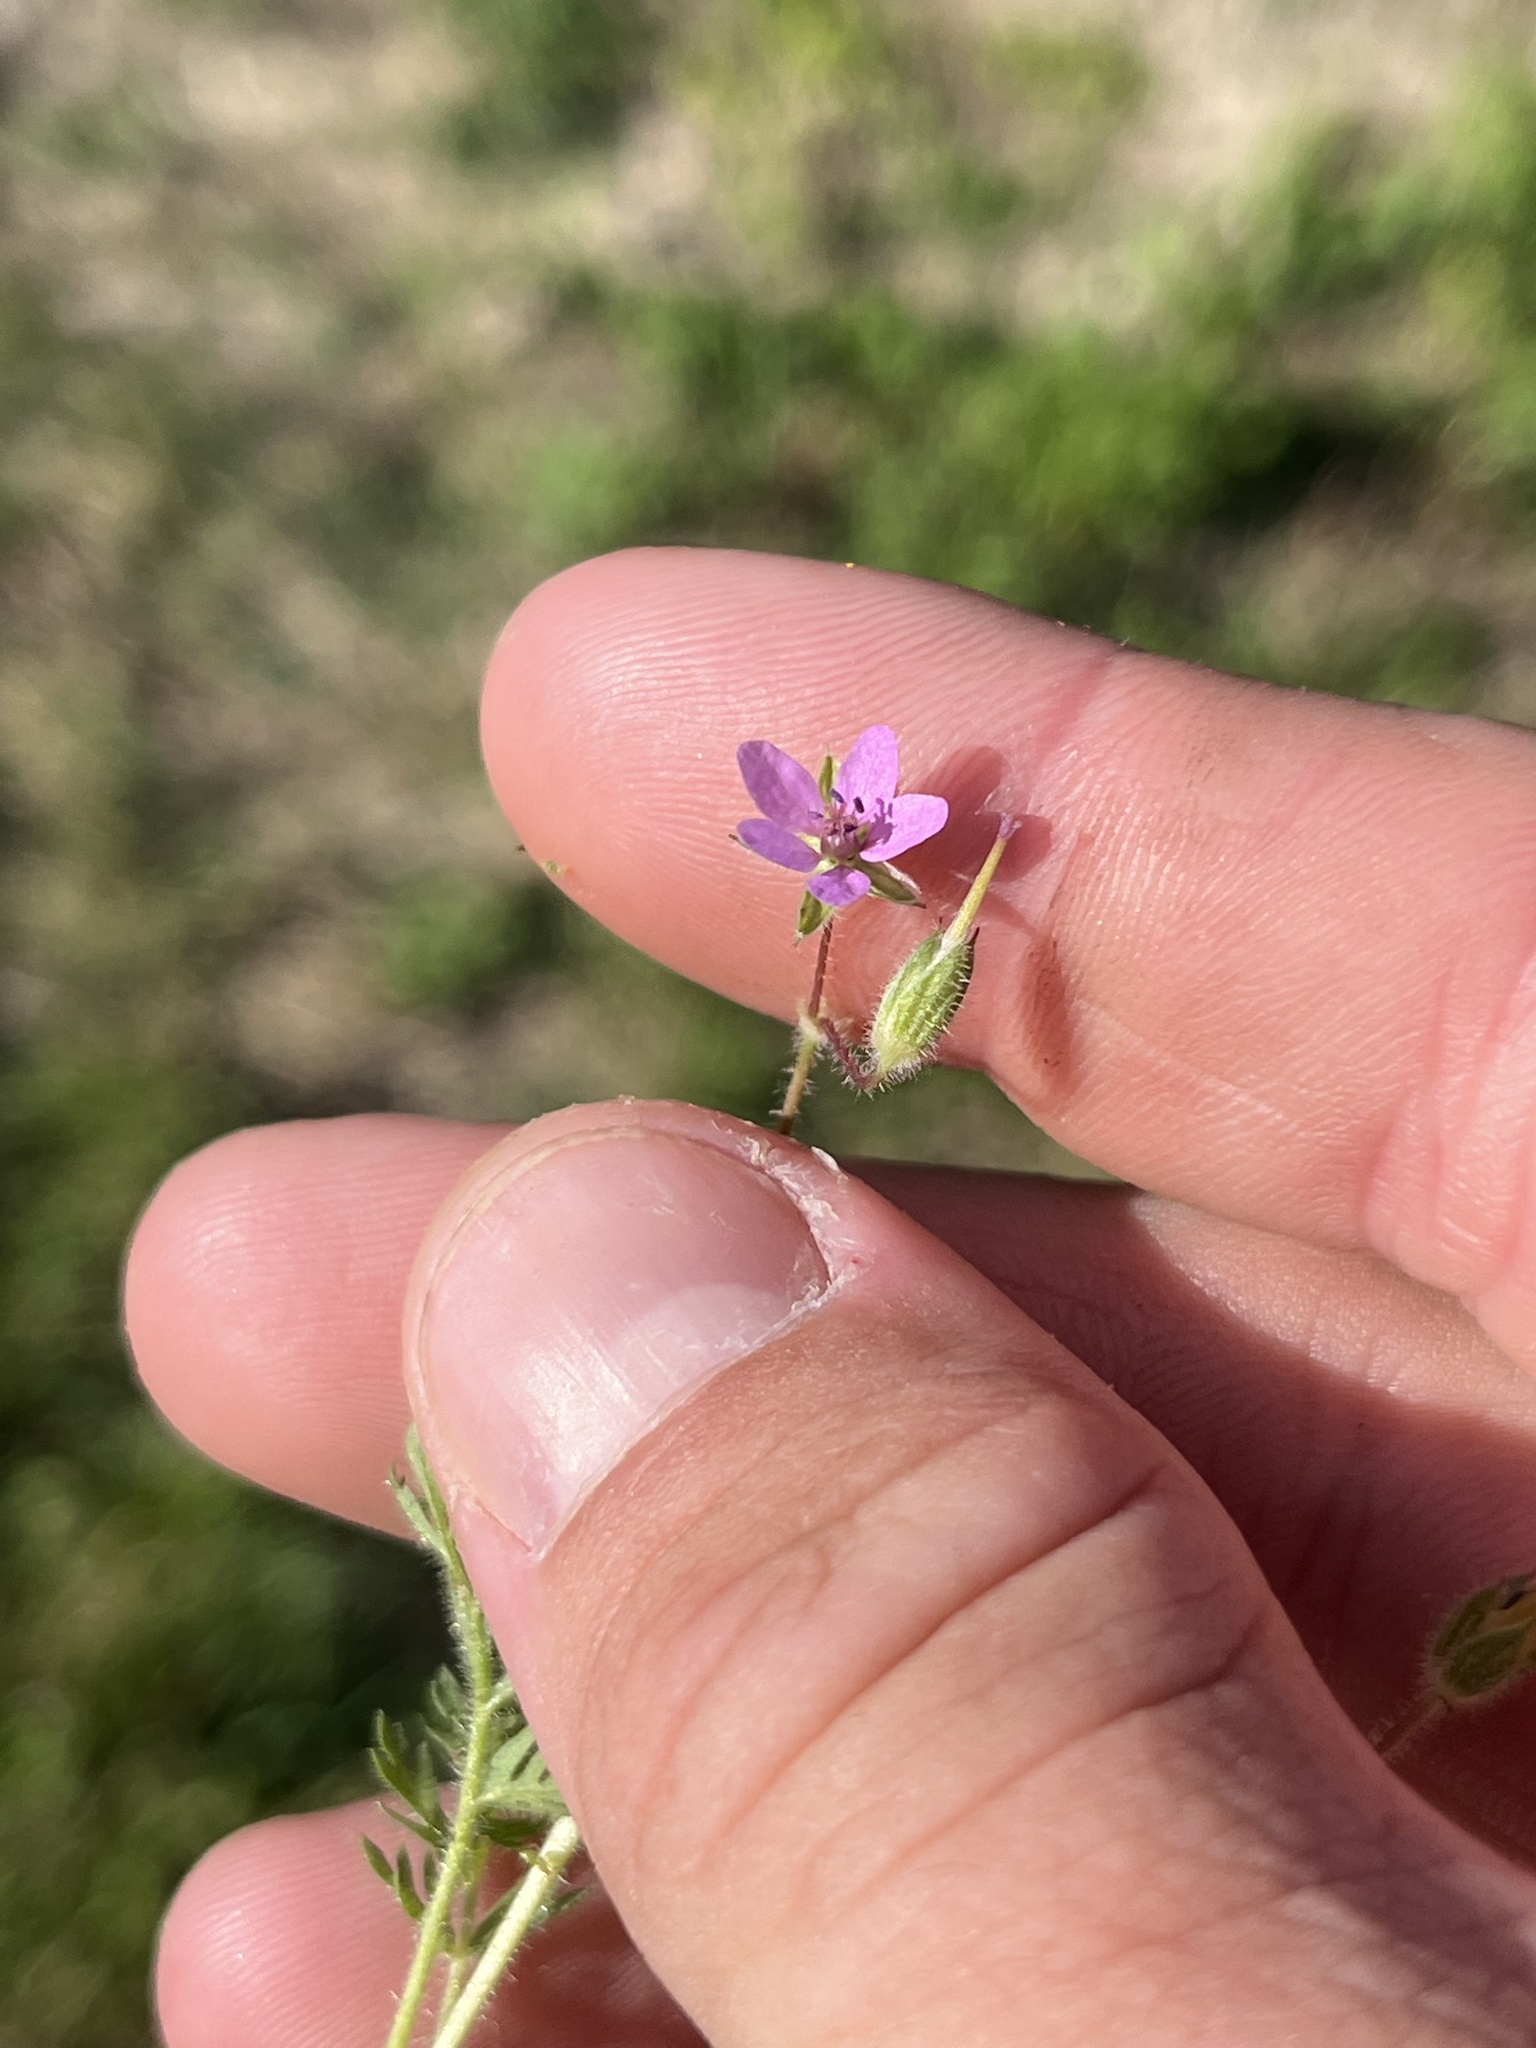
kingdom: Plantae
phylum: Tracheophyta
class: Magnoliopsida
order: Geraniales
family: Geraniaceae
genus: Erodium
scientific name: Erodium cicutarium
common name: Common stork's-bill
